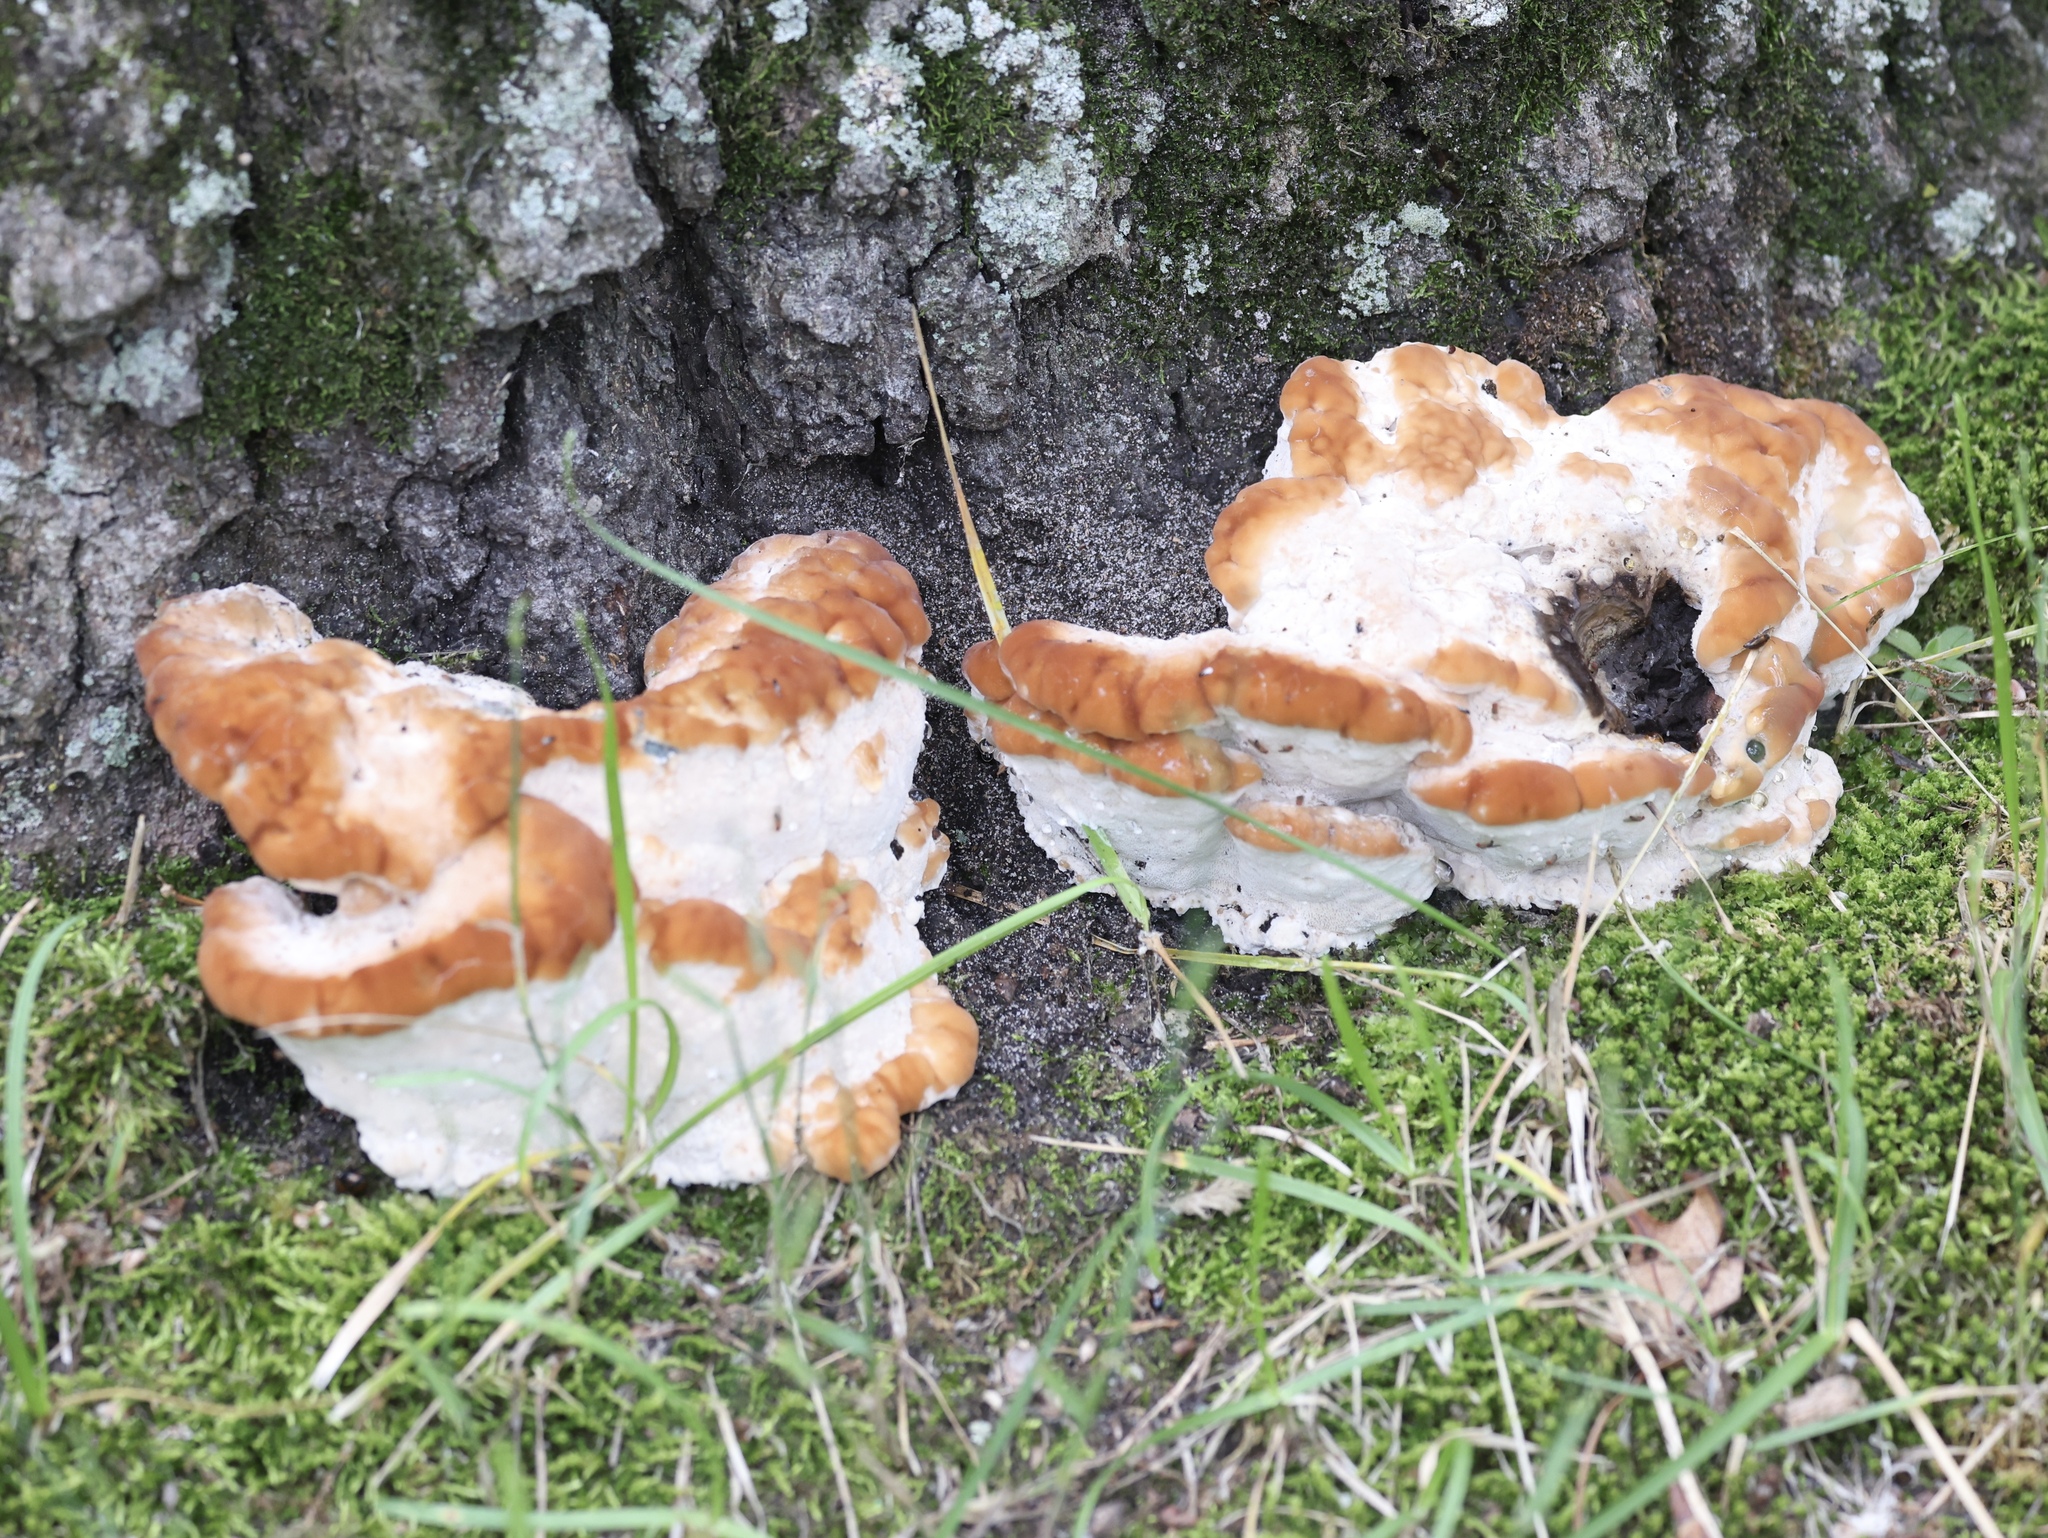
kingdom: Fungi
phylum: Basidiomycota
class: Agaricomycetes
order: Polyporales
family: Fomitopsidaceae
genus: Niveoporofomes
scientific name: Niveoporofomes spraguei
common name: Green cheese polypore
